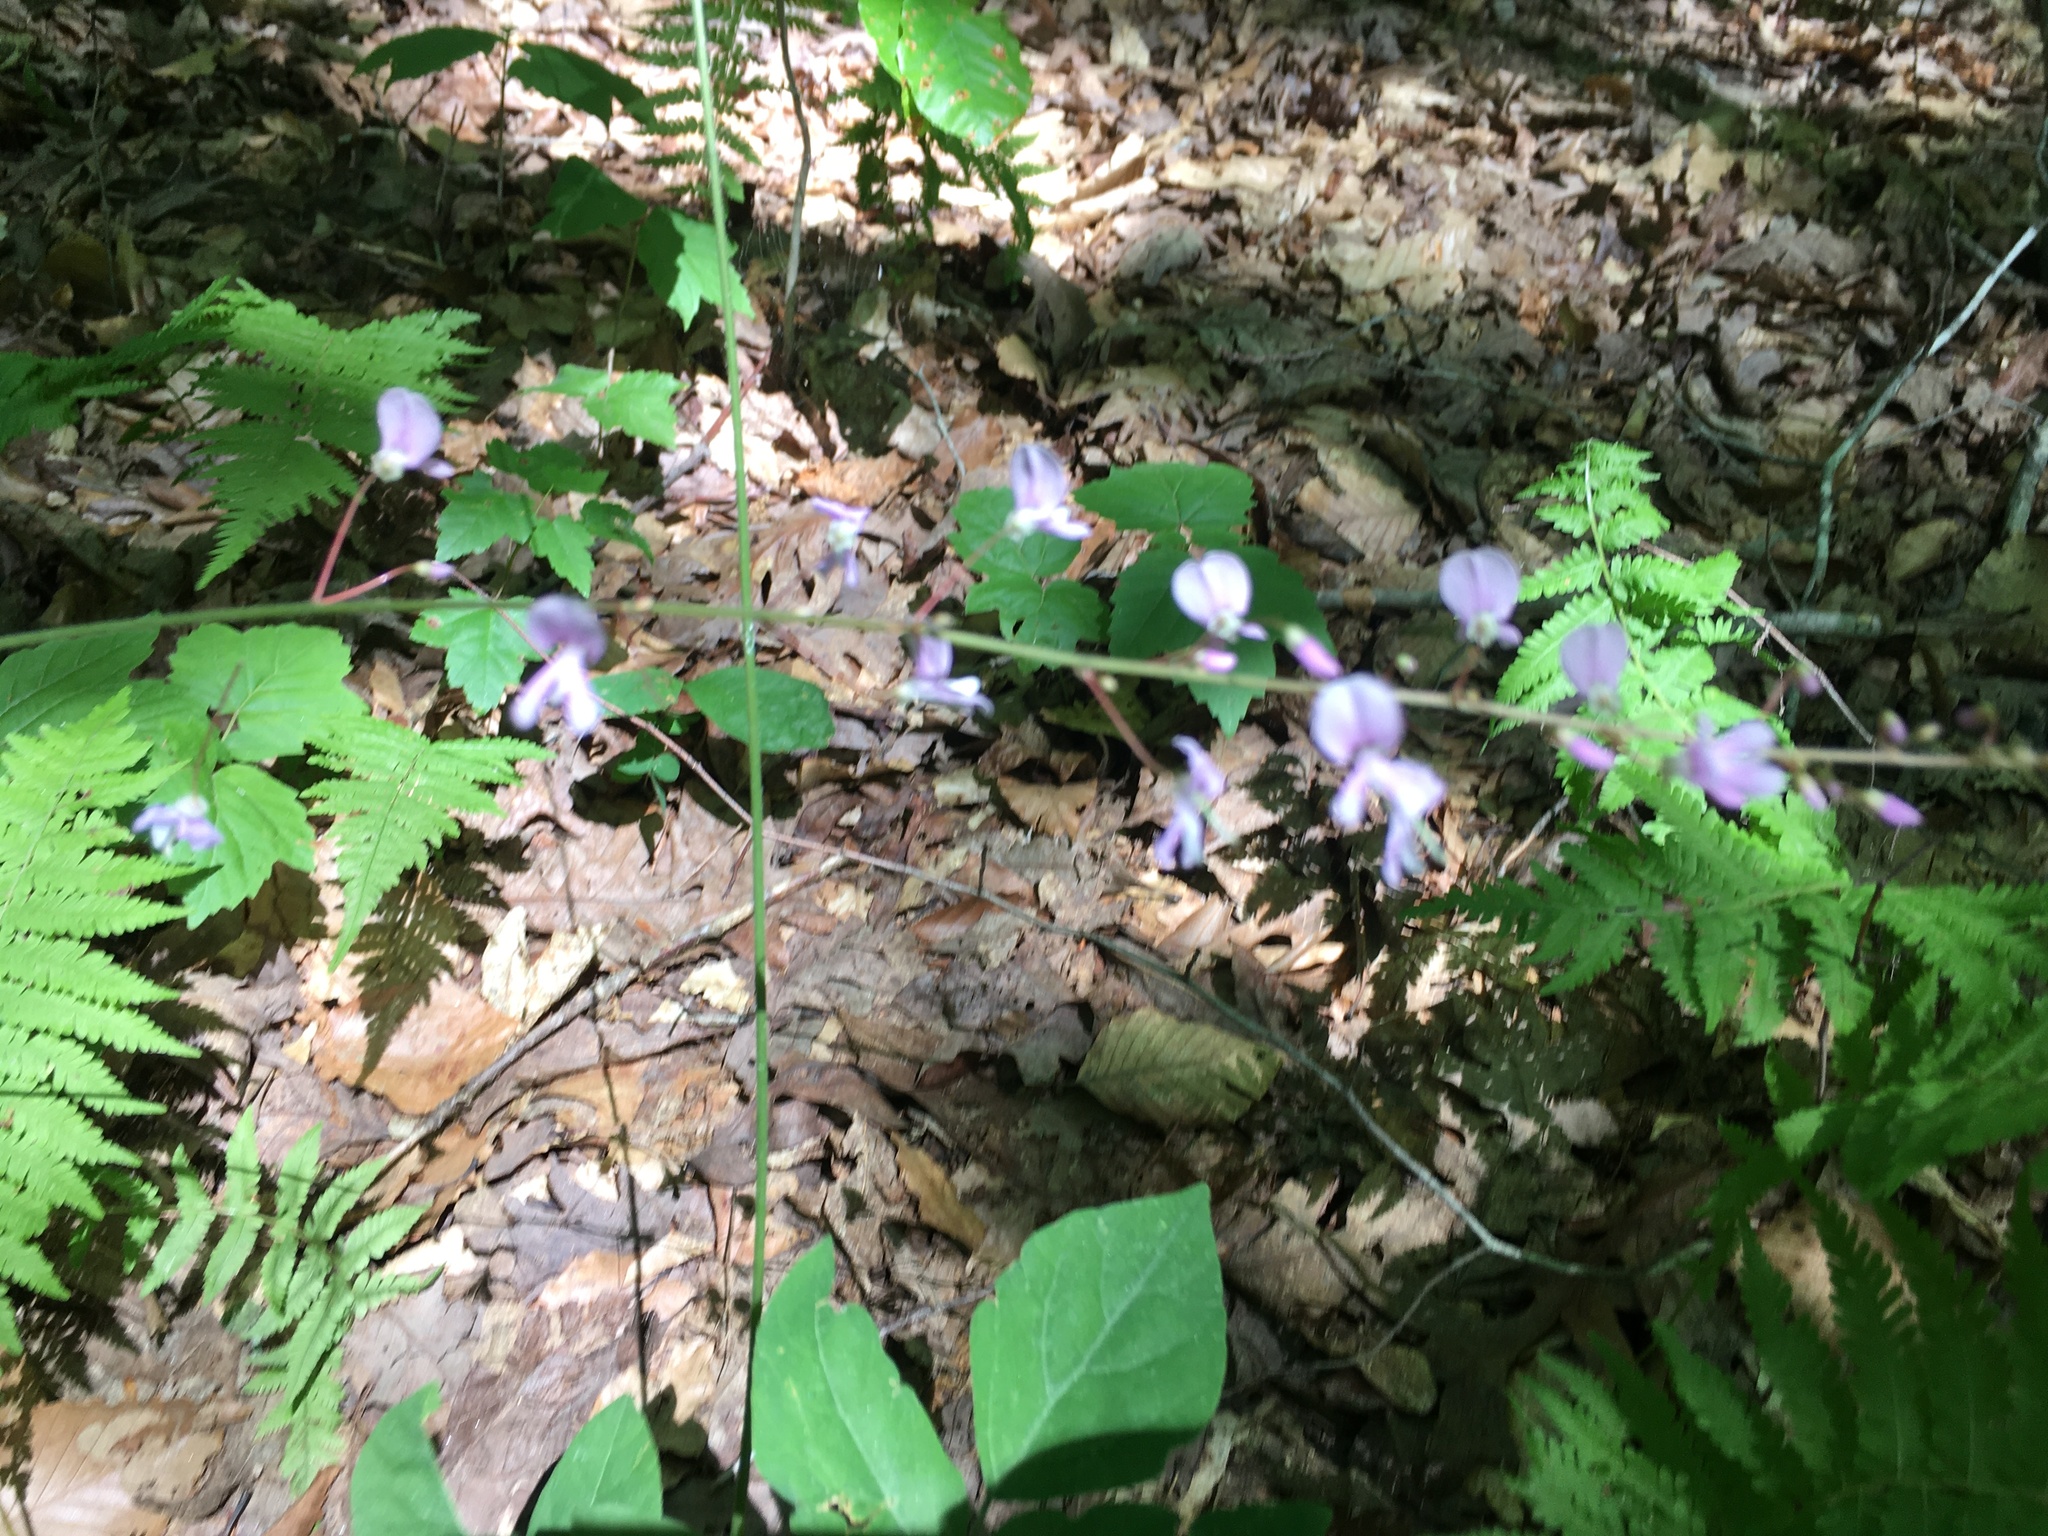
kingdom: Plantae
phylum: Tracheophyta
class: Magnoliopsida
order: Fabales
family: Fabaceae
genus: Hylodesmum
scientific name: Hylodesmum nudiflorum
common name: Bare-stemmed tick-trefoil
